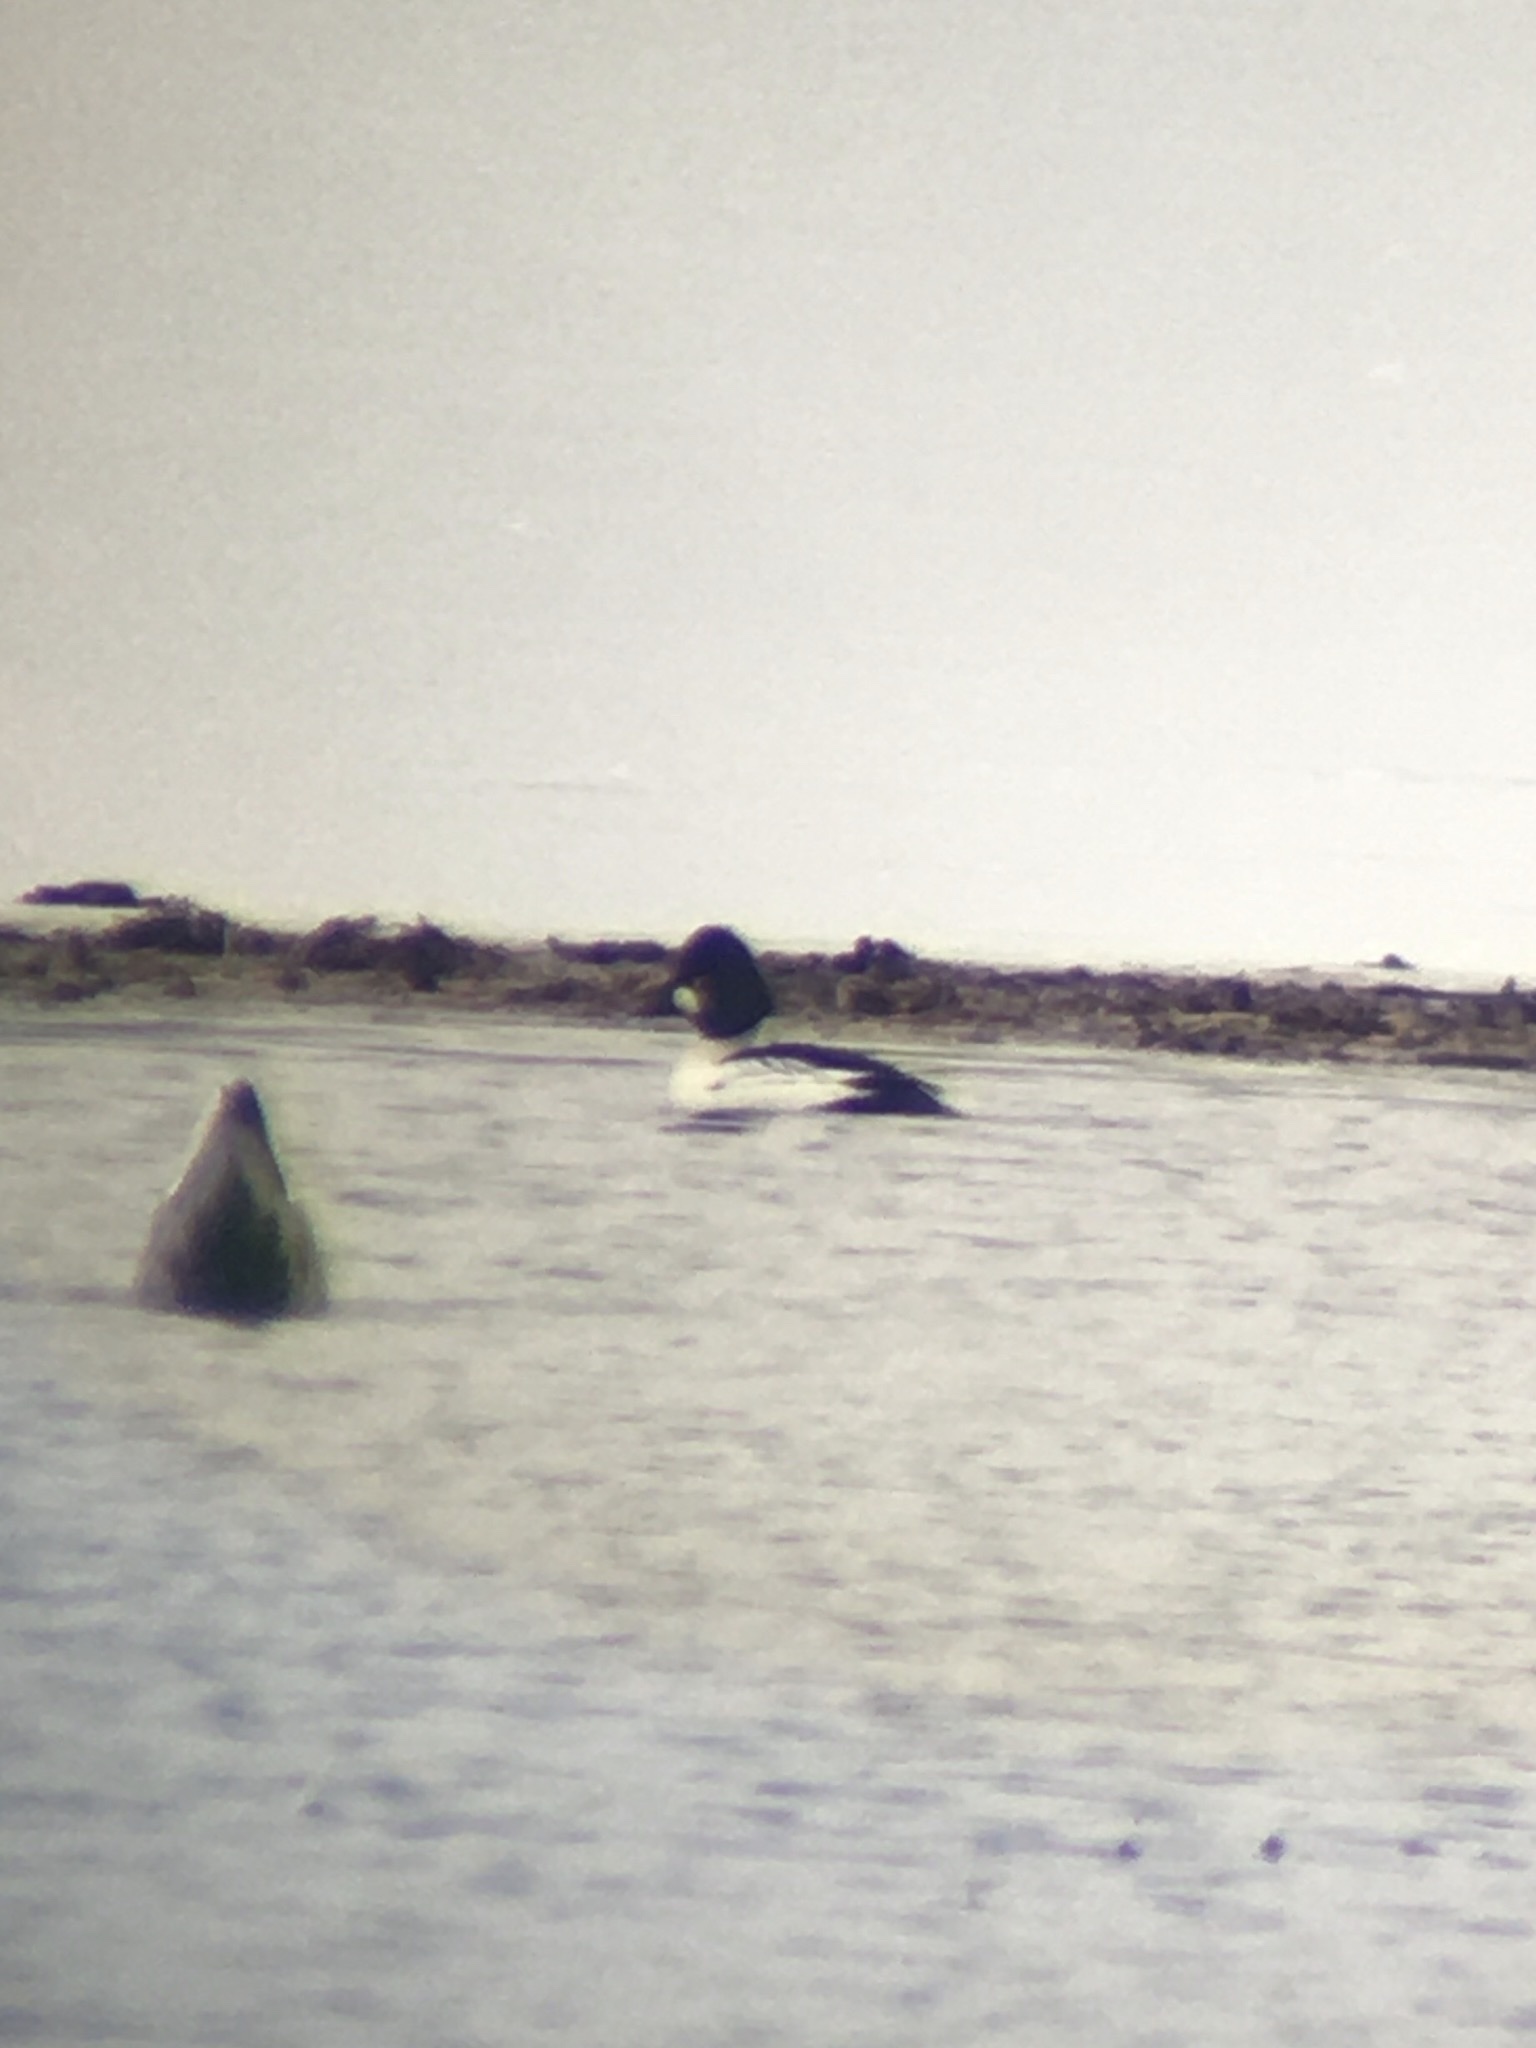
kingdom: Animalia
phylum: Chordata
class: Aves
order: Anseriformes
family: Anatidae
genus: Bucephala
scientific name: Bucephala clangula
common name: Common goldeneye
